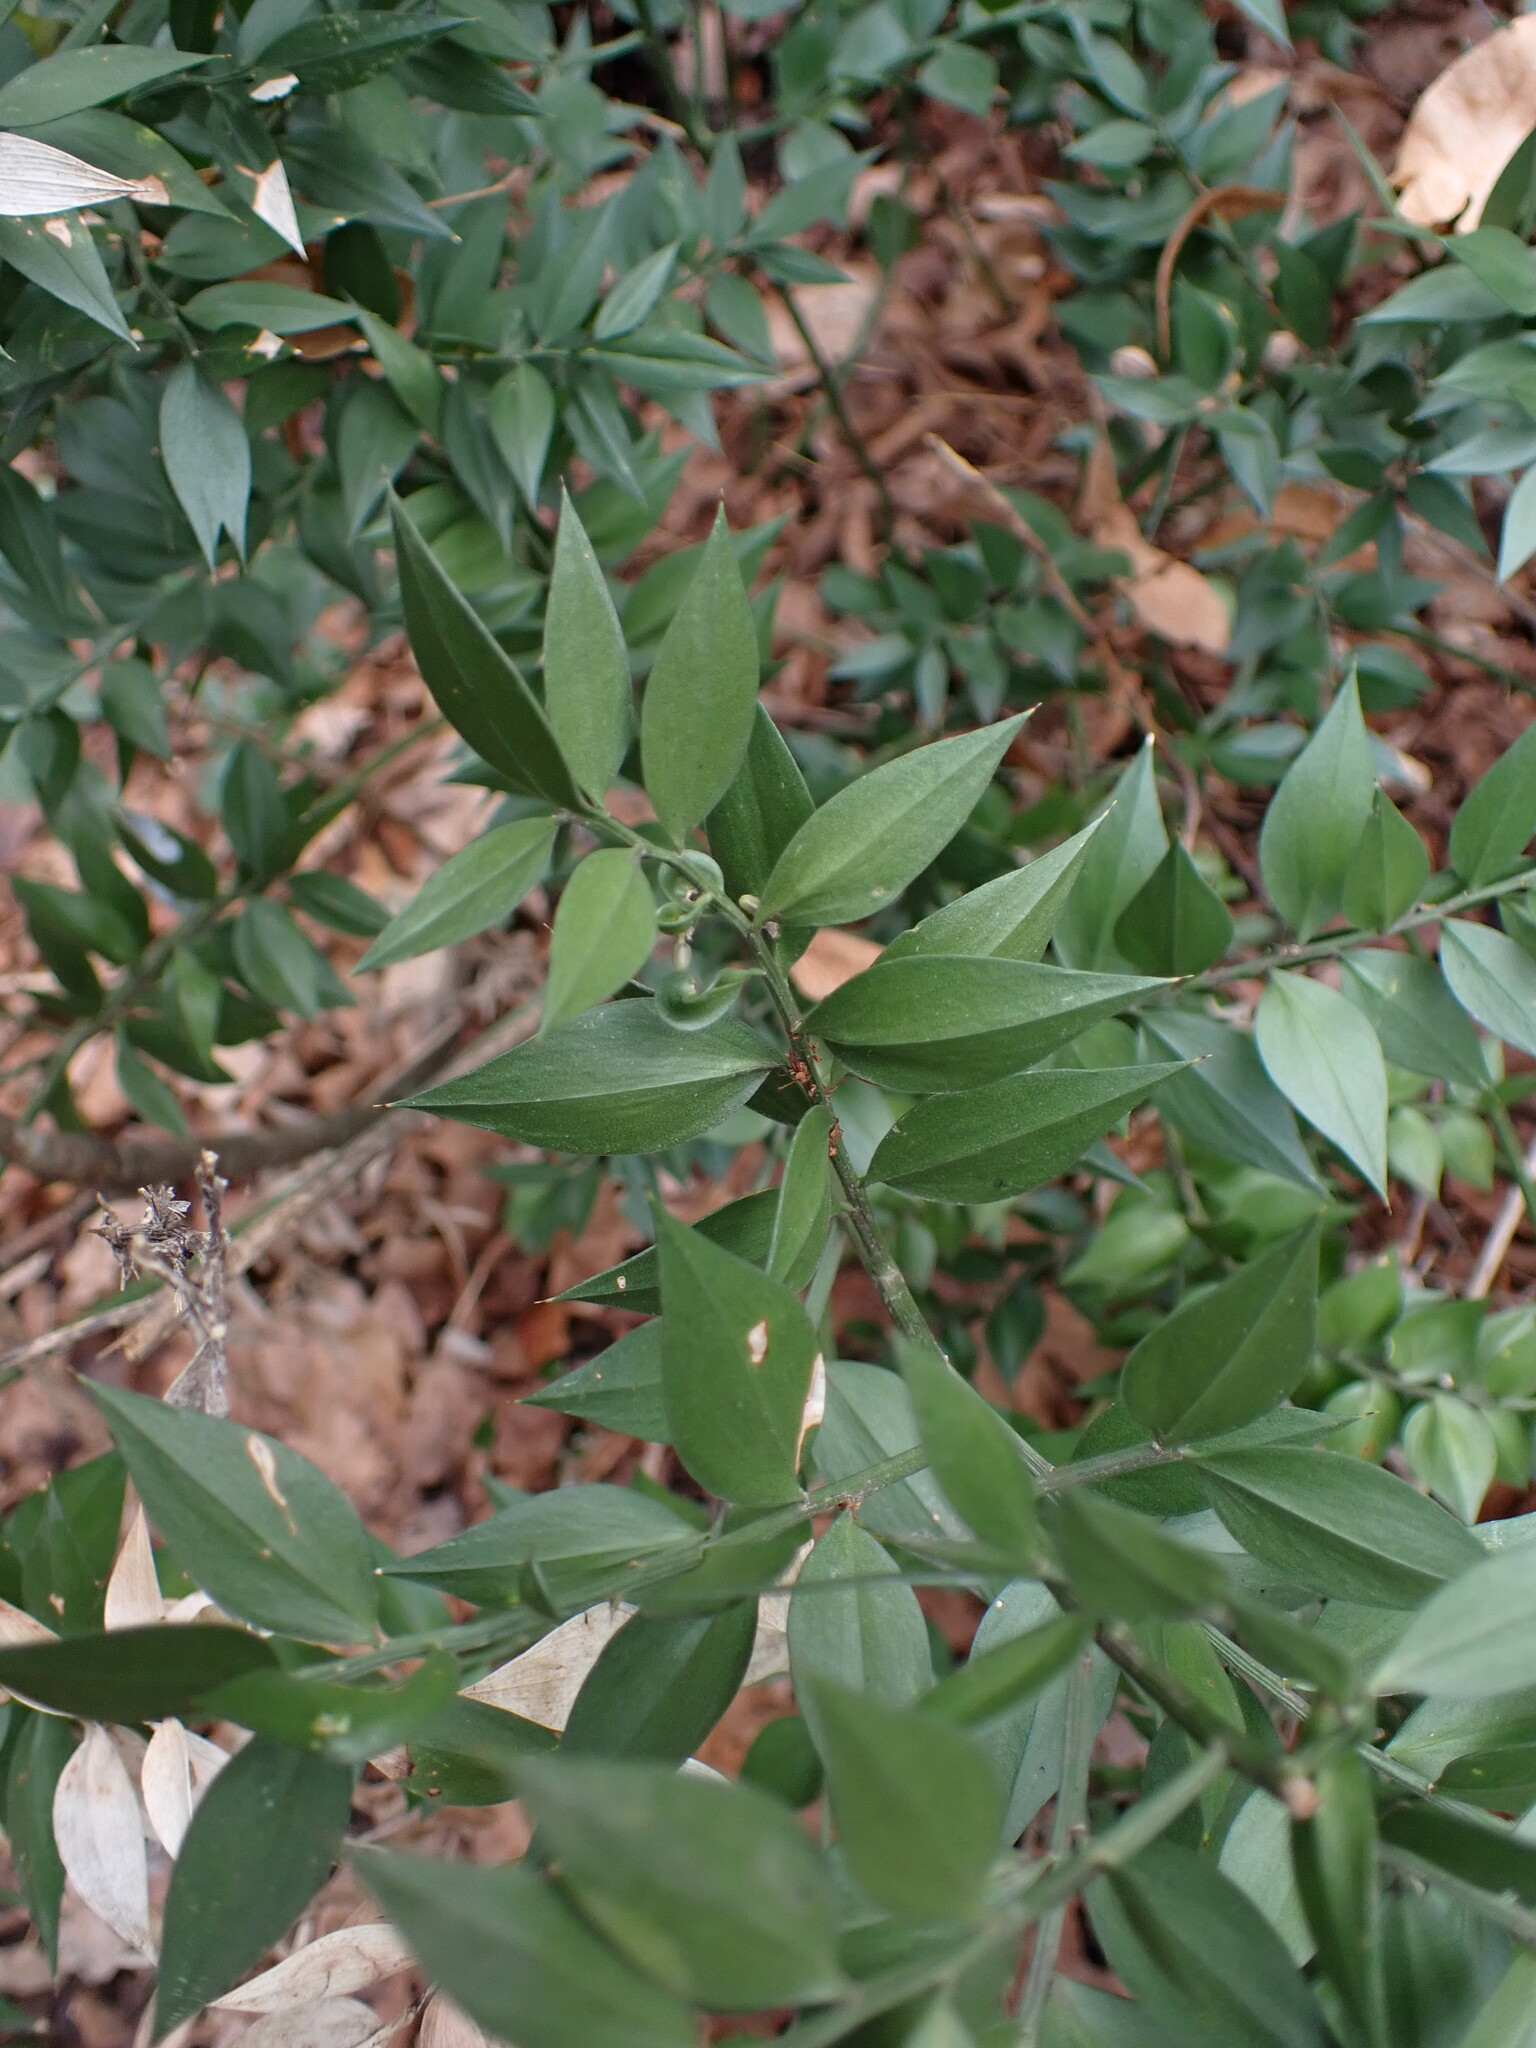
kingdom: Plantae
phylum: Tracheophyta
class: Liliopsida
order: Asparagales
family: Asparagaceae
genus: Ruscus
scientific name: Ruscus aculeatus
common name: Butcher's-broom
